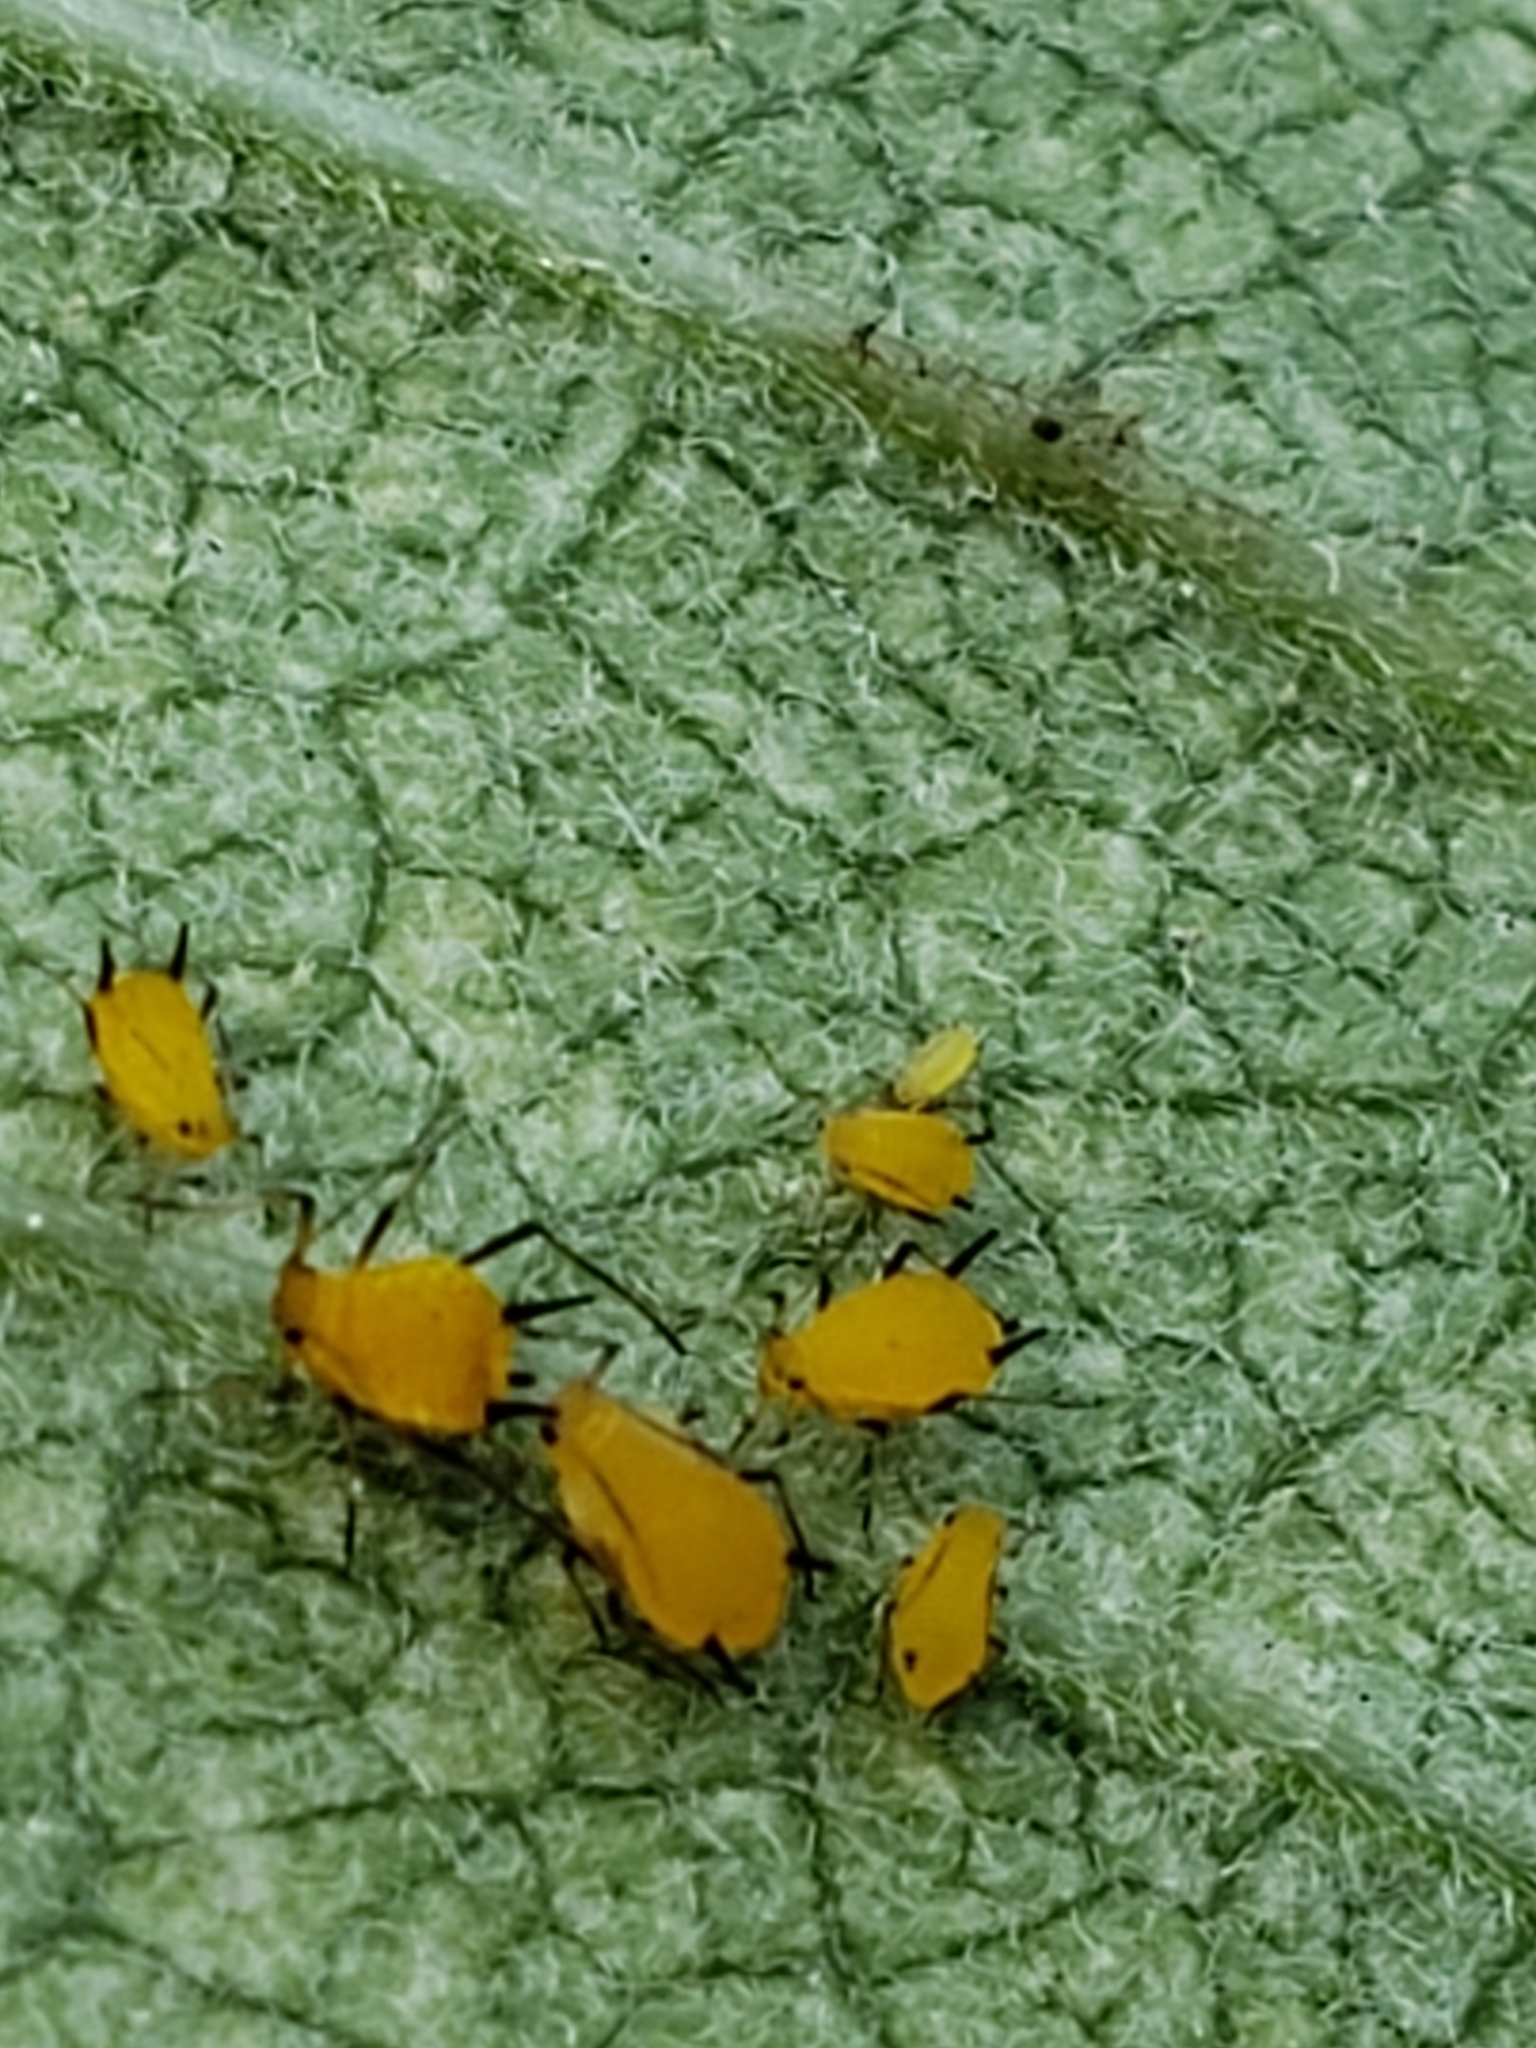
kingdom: Animalia
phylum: Arthropoda
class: Insecta
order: Hemiptera
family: Aphididae
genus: Aphis
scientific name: Aphis nerii
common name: Oleander aphid
